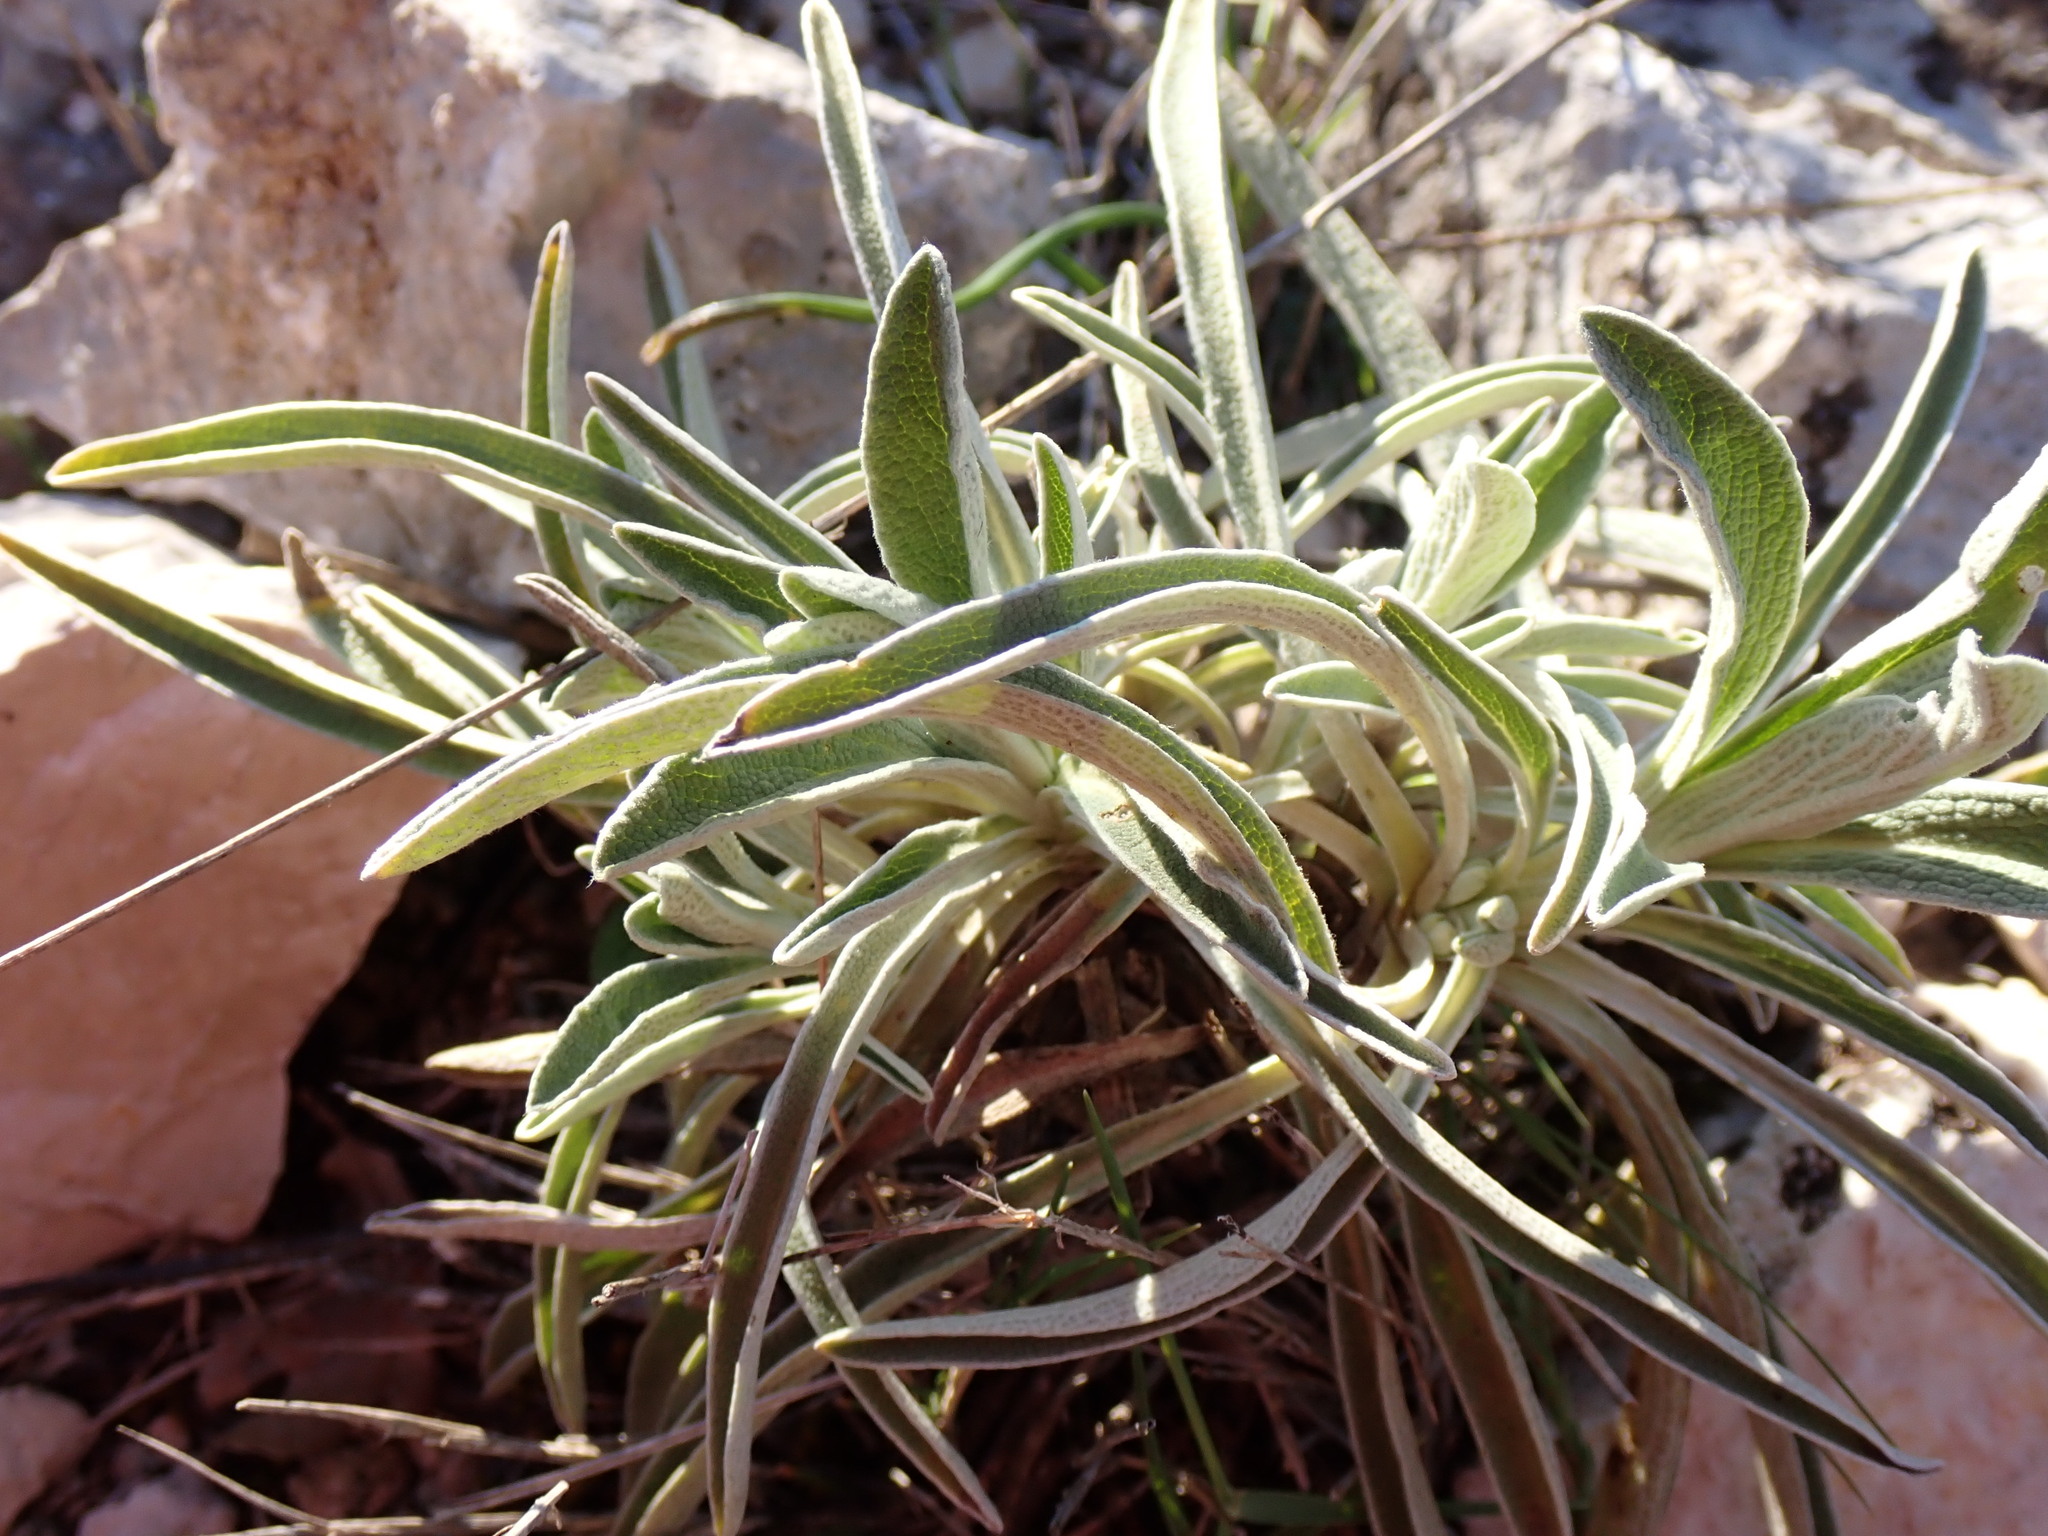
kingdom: Plantae
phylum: Tracheophyta
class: Magnoliopsida
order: Lamiales
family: Lamiaceae
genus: Phlomis
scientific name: Phlomis lychnitis
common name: Lampwickplant
